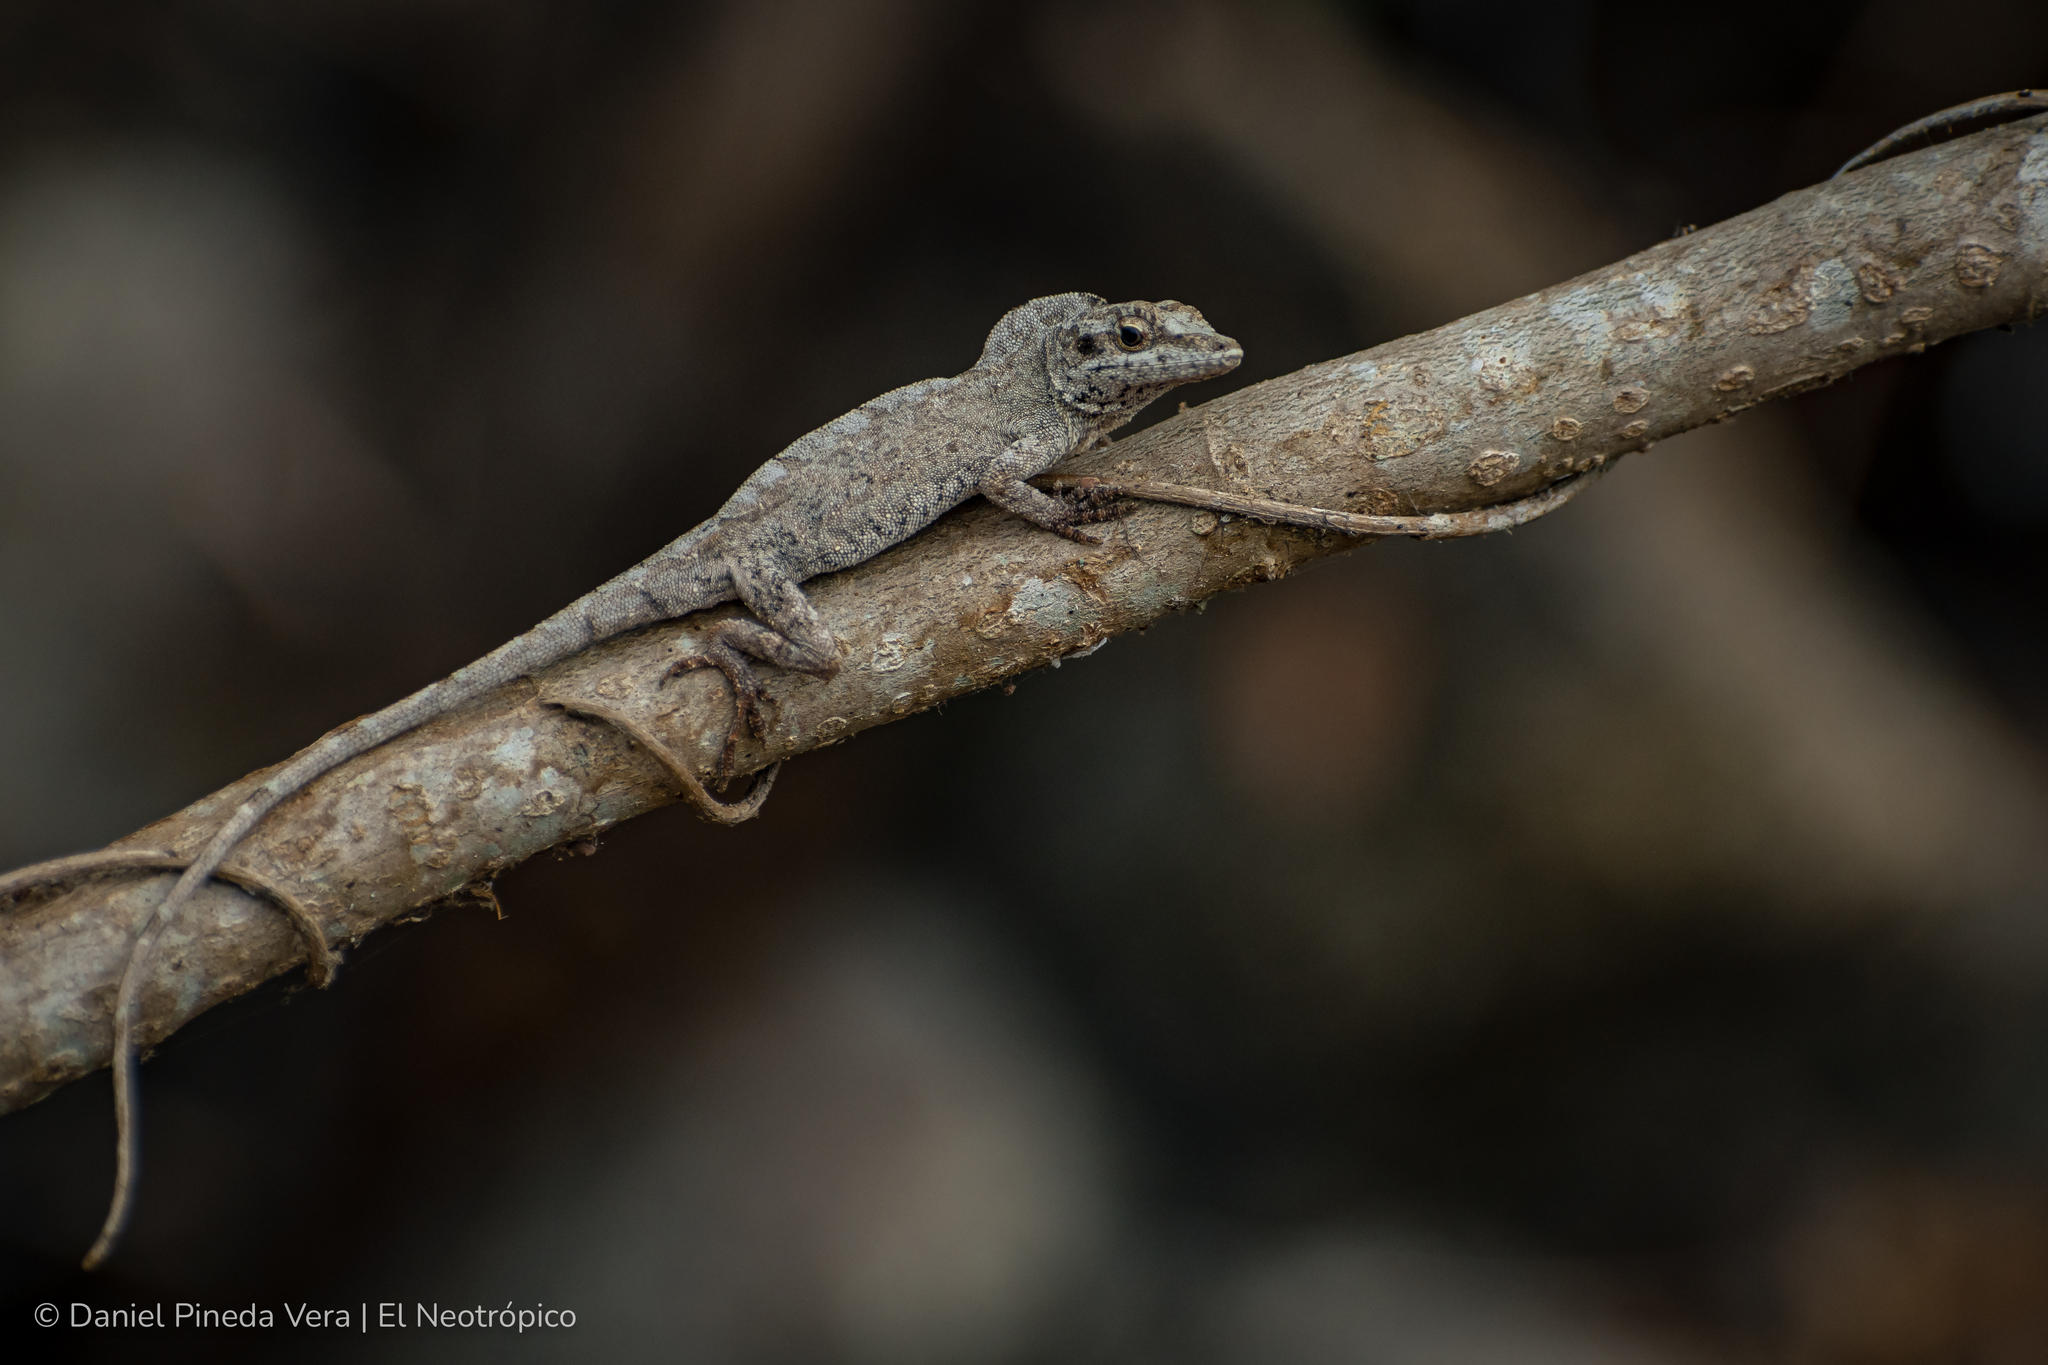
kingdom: Animalia
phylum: Chordata
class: Squamata
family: Dactyloidae
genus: Anolis
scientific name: Anolis laeviventris
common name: White anole
